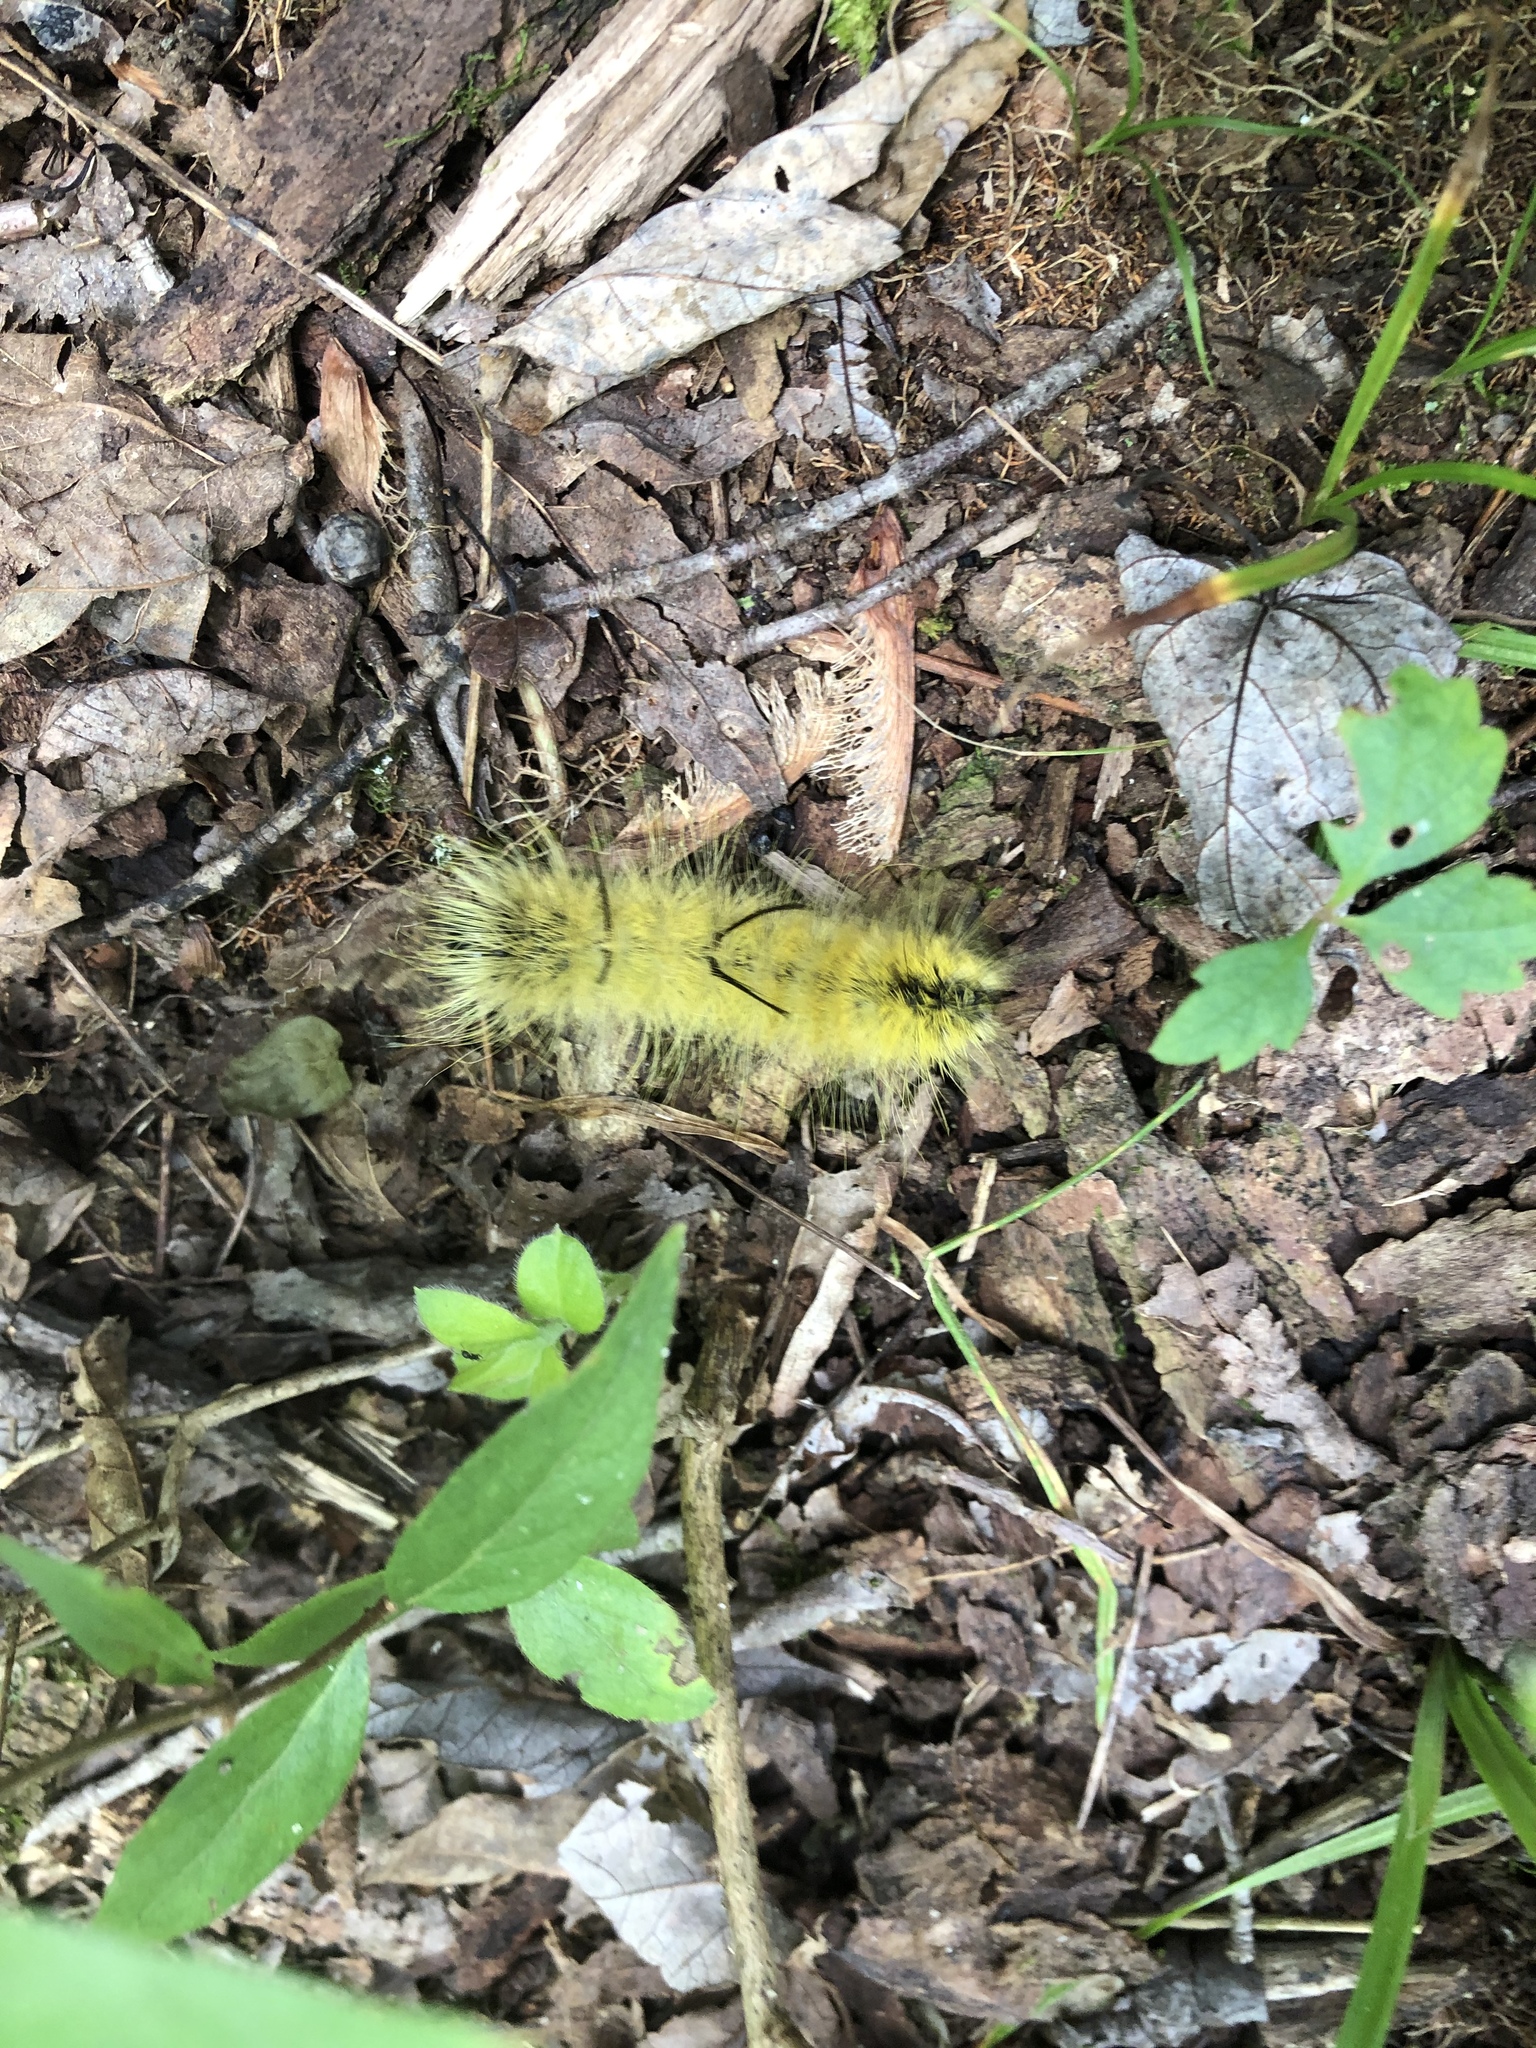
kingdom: Animalia
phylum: Arthropoda
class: Insecta
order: Lepidoptera
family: Noctuidae
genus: Acronicta
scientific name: Acronicta americana
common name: American dagger
